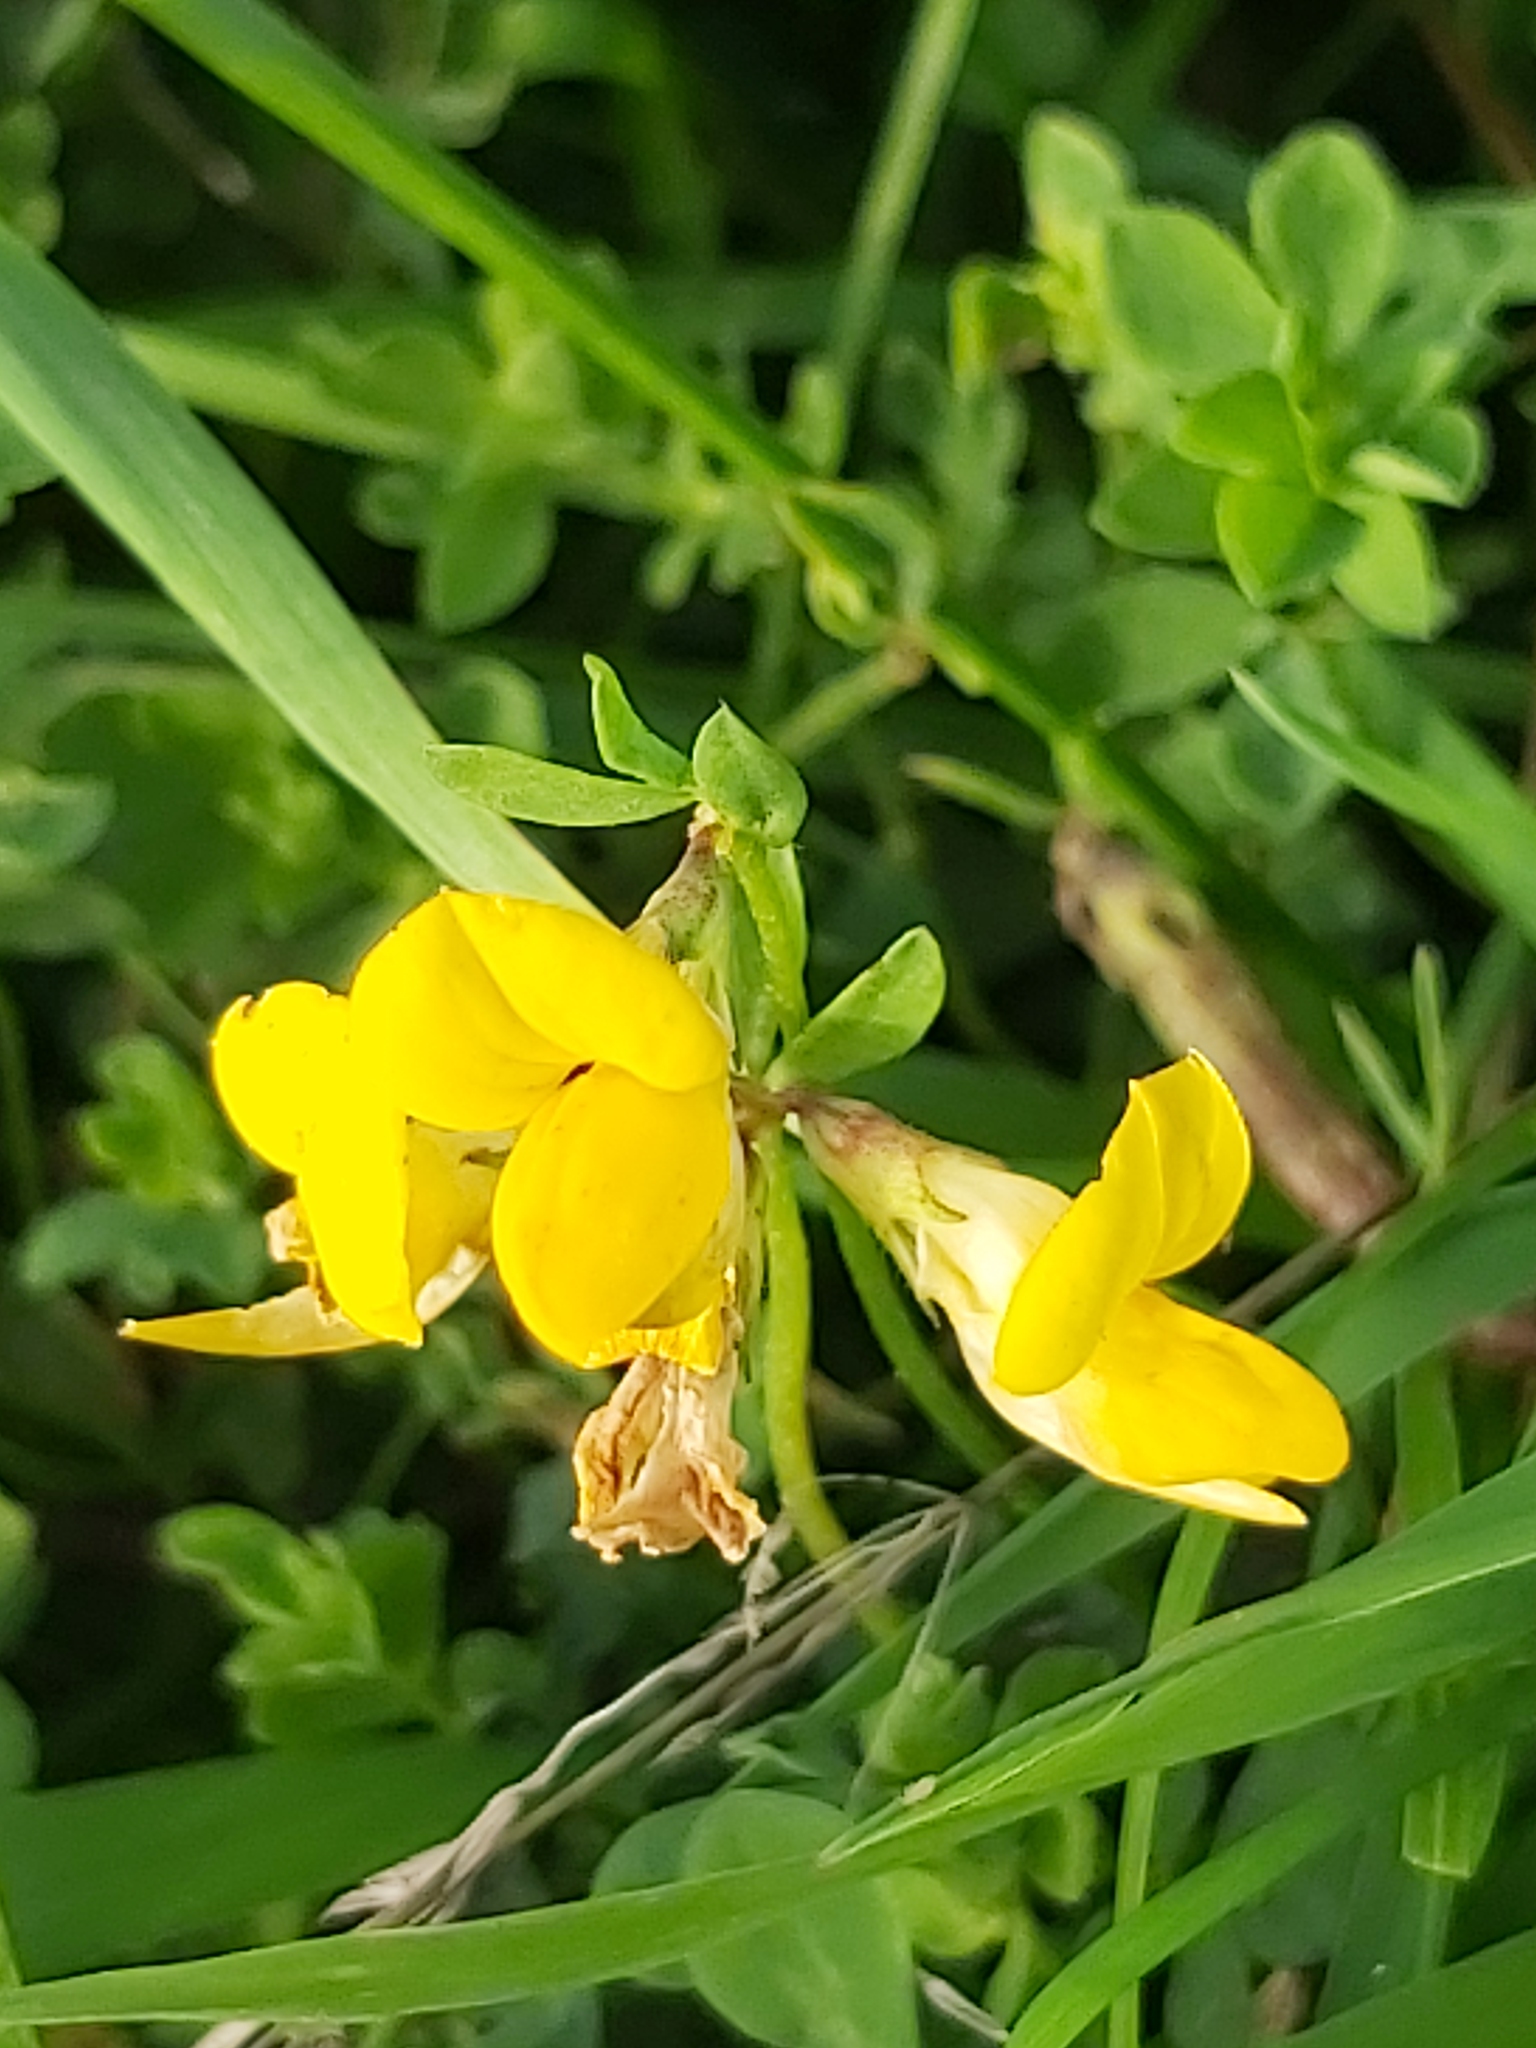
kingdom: Plantae
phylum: Tracheophyta
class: Magnoliopsida
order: Fabales
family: Fabaceae
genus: Lotus
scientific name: Lotus corniculatus
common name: Common bird's-foot-trefoil
